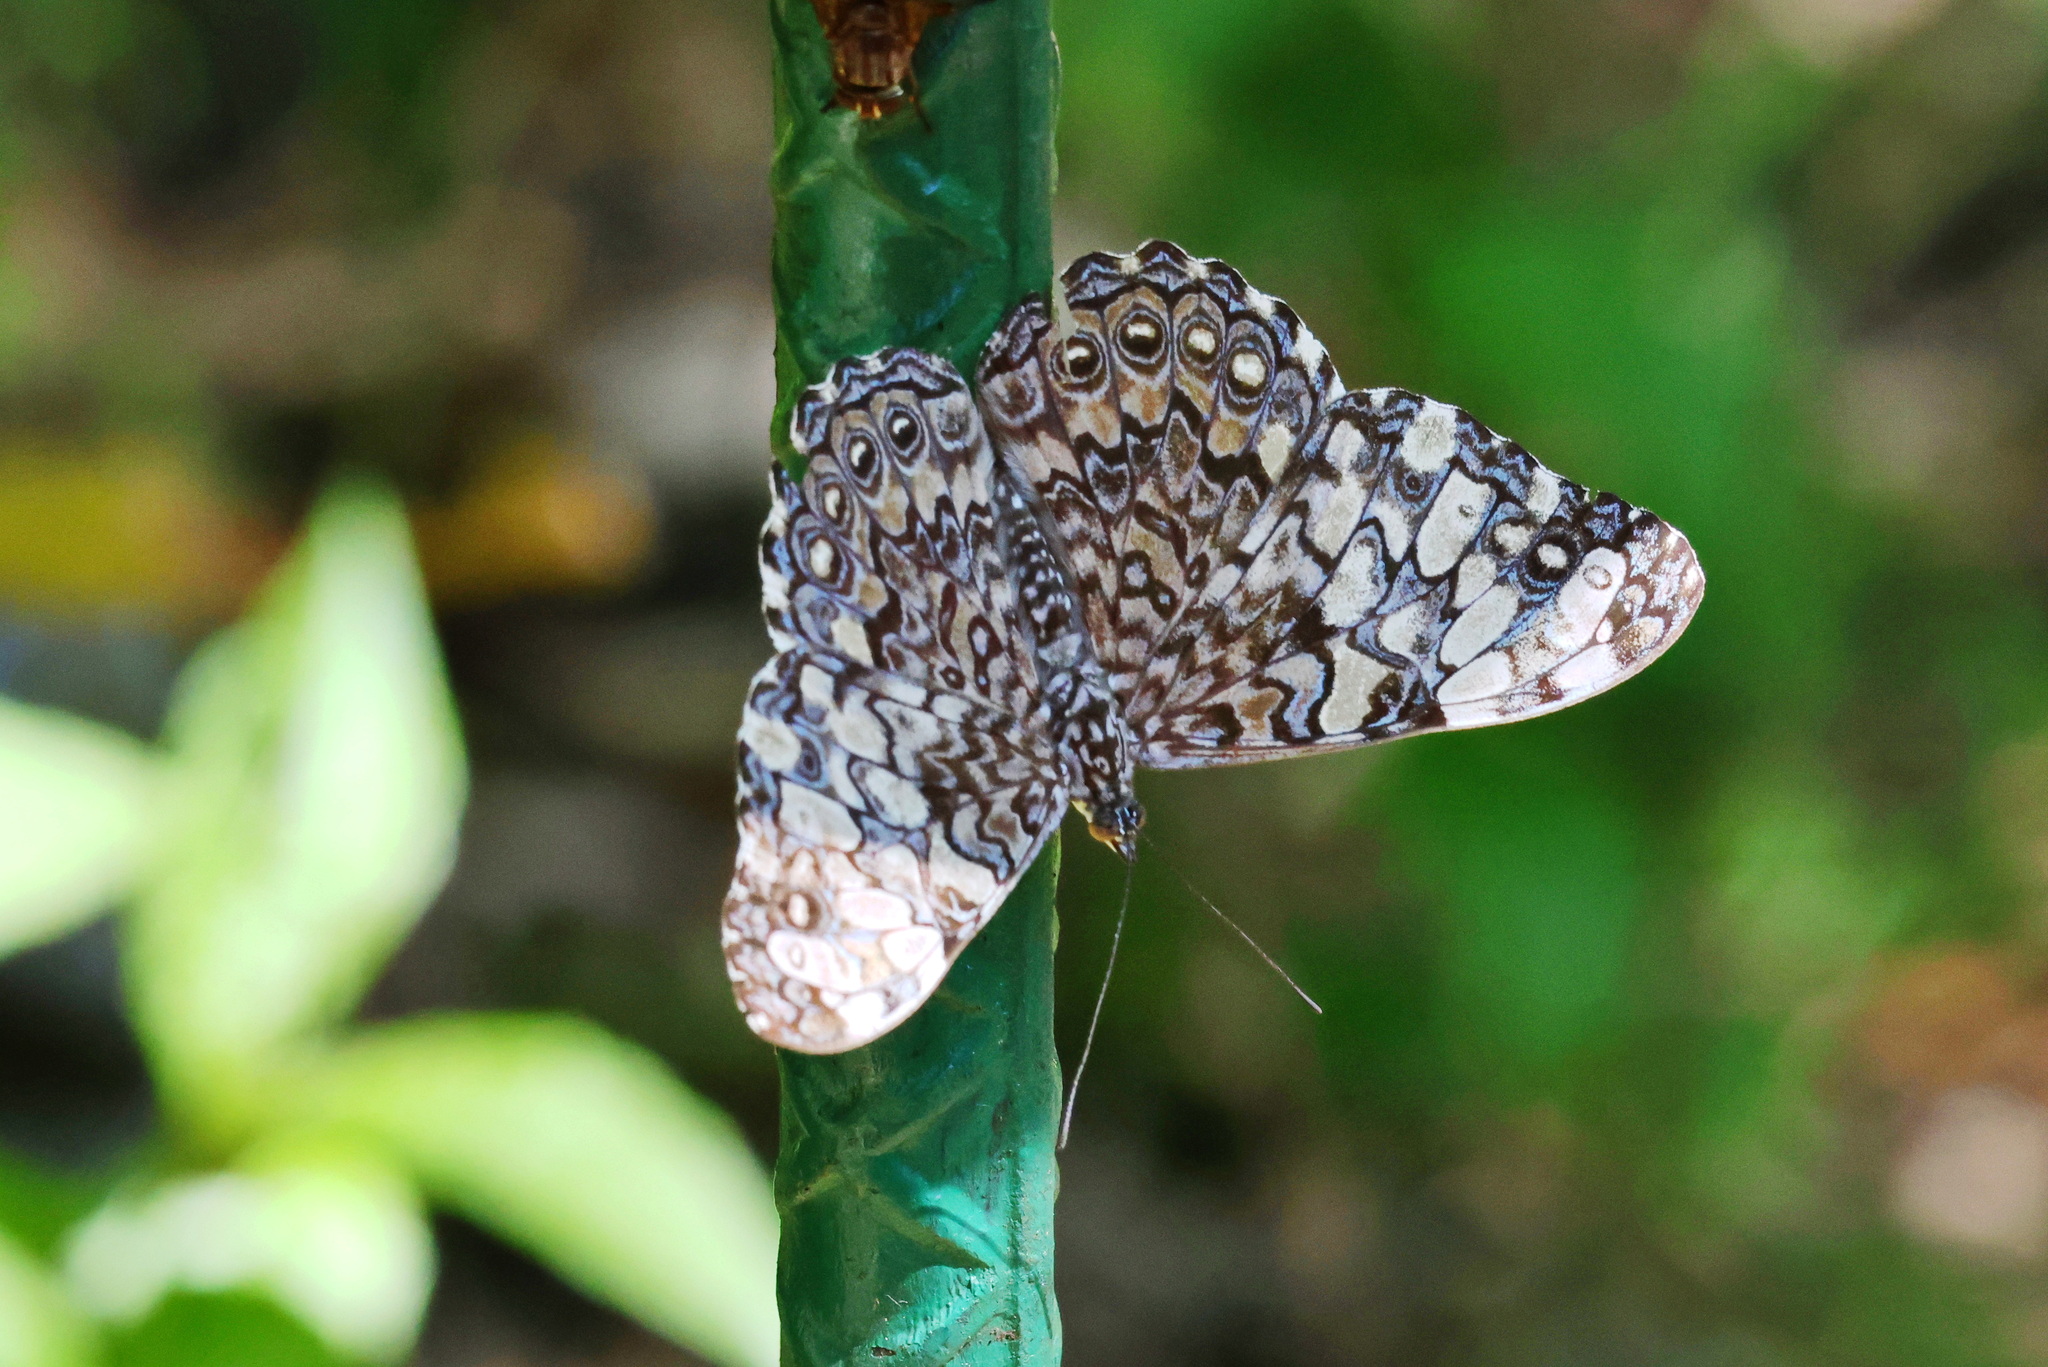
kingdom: Animalia
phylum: Arthropoda
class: Insecta
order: Lepidoptera
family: Nymphalidae
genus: Hamadryas
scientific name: Hamadryas iphthime
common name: Brownish cracker
